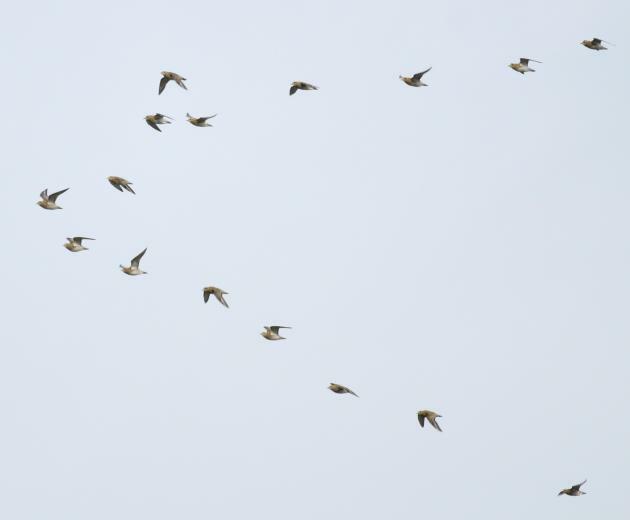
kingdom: Animalia
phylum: Chordata
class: Aves
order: Charadriiformes
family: Charadriidae
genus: Pluvialis
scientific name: Pluvialis apricaria
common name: European golden plover
